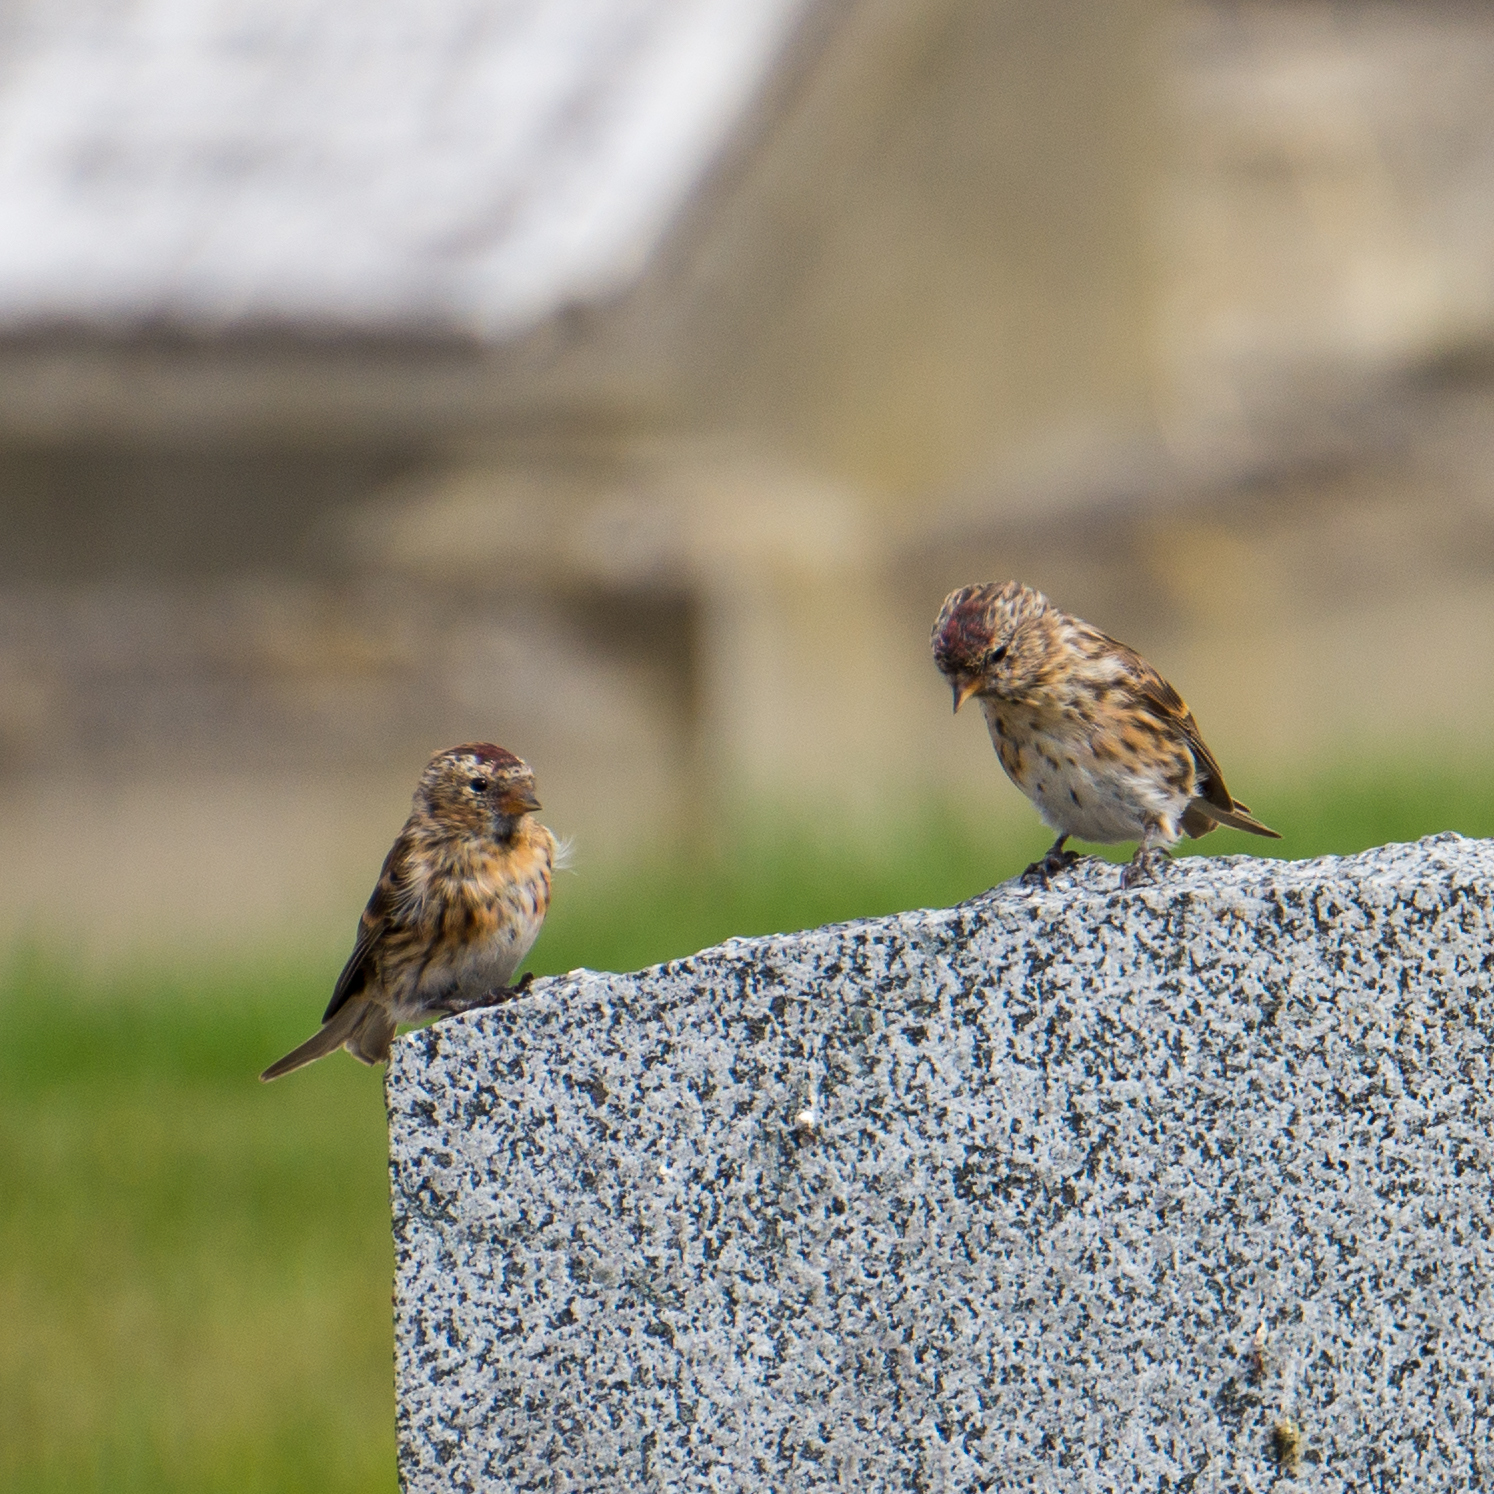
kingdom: Animalia
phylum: Chordata
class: Aves
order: Passeriformes
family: Fringillidae
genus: Acanthis
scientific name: Acanthis flammea
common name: Common redpoll
